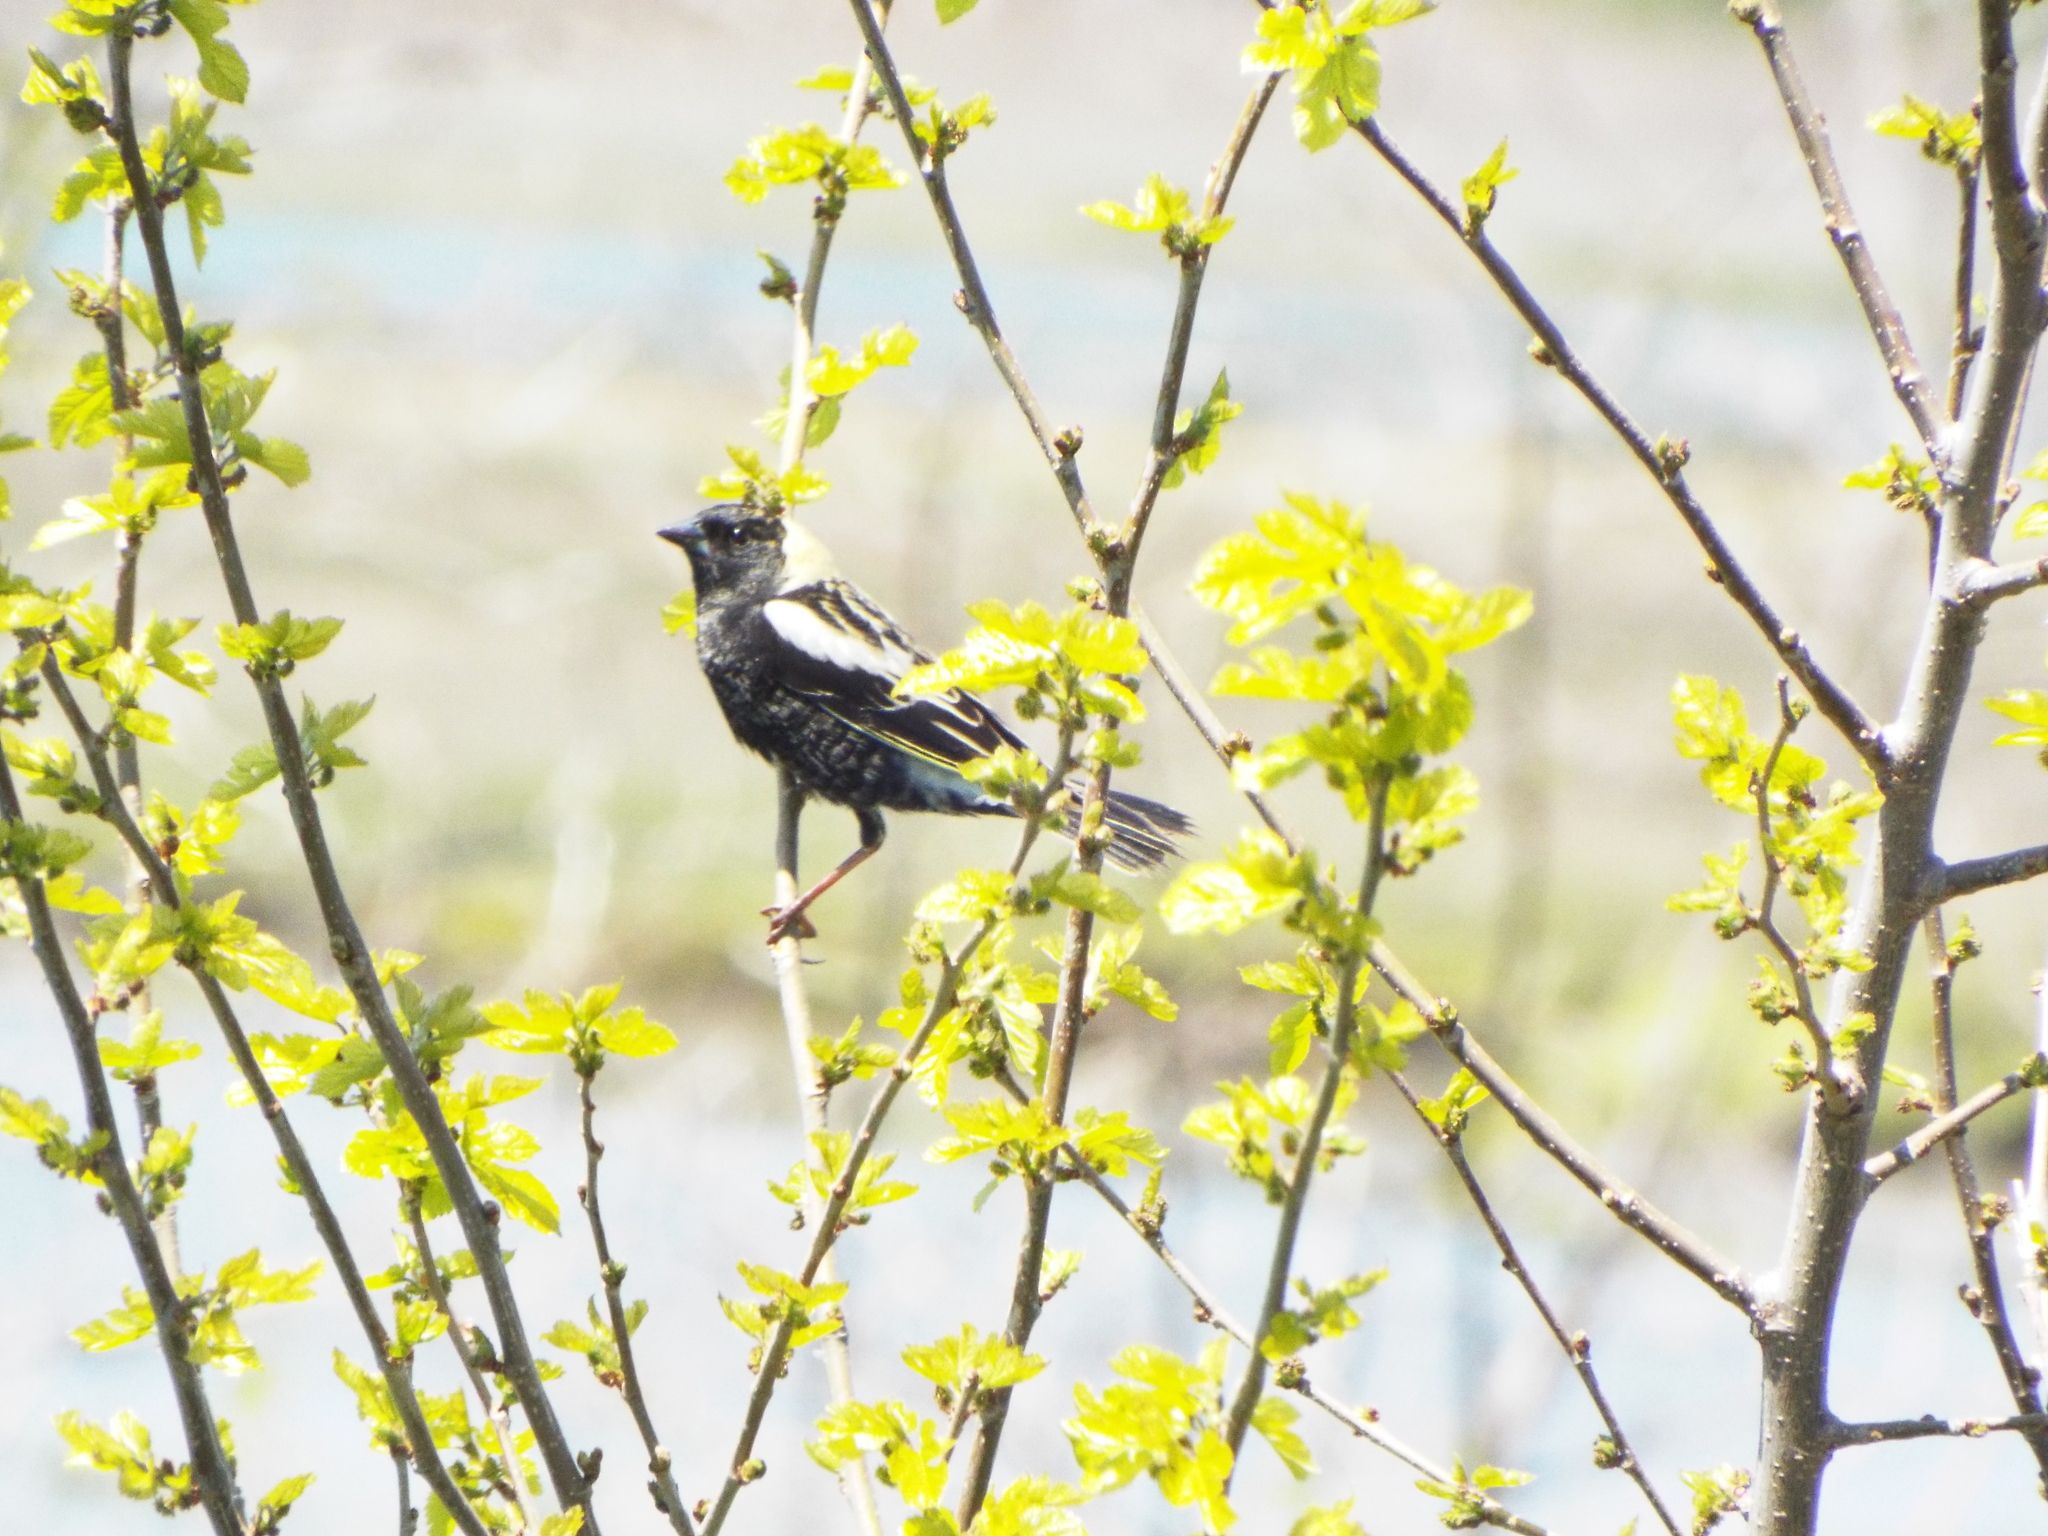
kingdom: Animalia
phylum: Chordata
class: Aves
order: Passeriformes
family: Icteridae
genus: Dolichonyx
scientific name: Dolichonyx oryzivorus
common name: Bobolink
